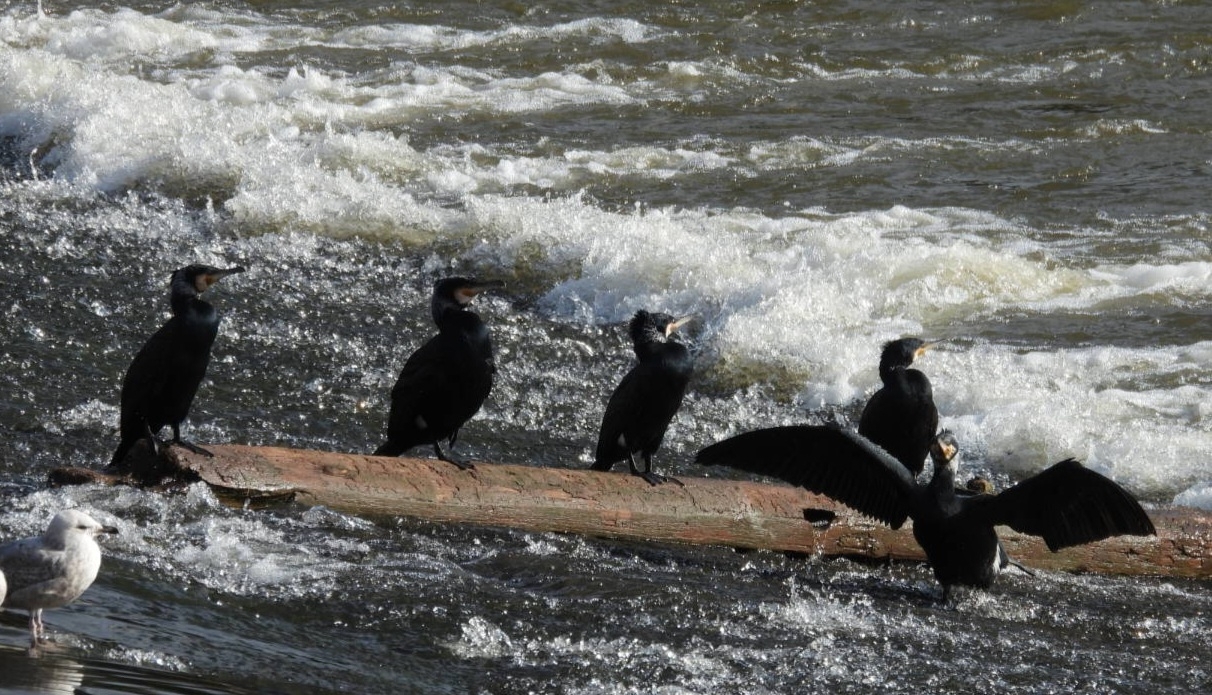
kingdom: Animalia
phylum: Chordata
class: Aves
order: Suliformes
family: Phalacrocoracidae
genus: Phalacrocorax
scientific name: Phalacrocorax carbo
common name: Great cormorant
